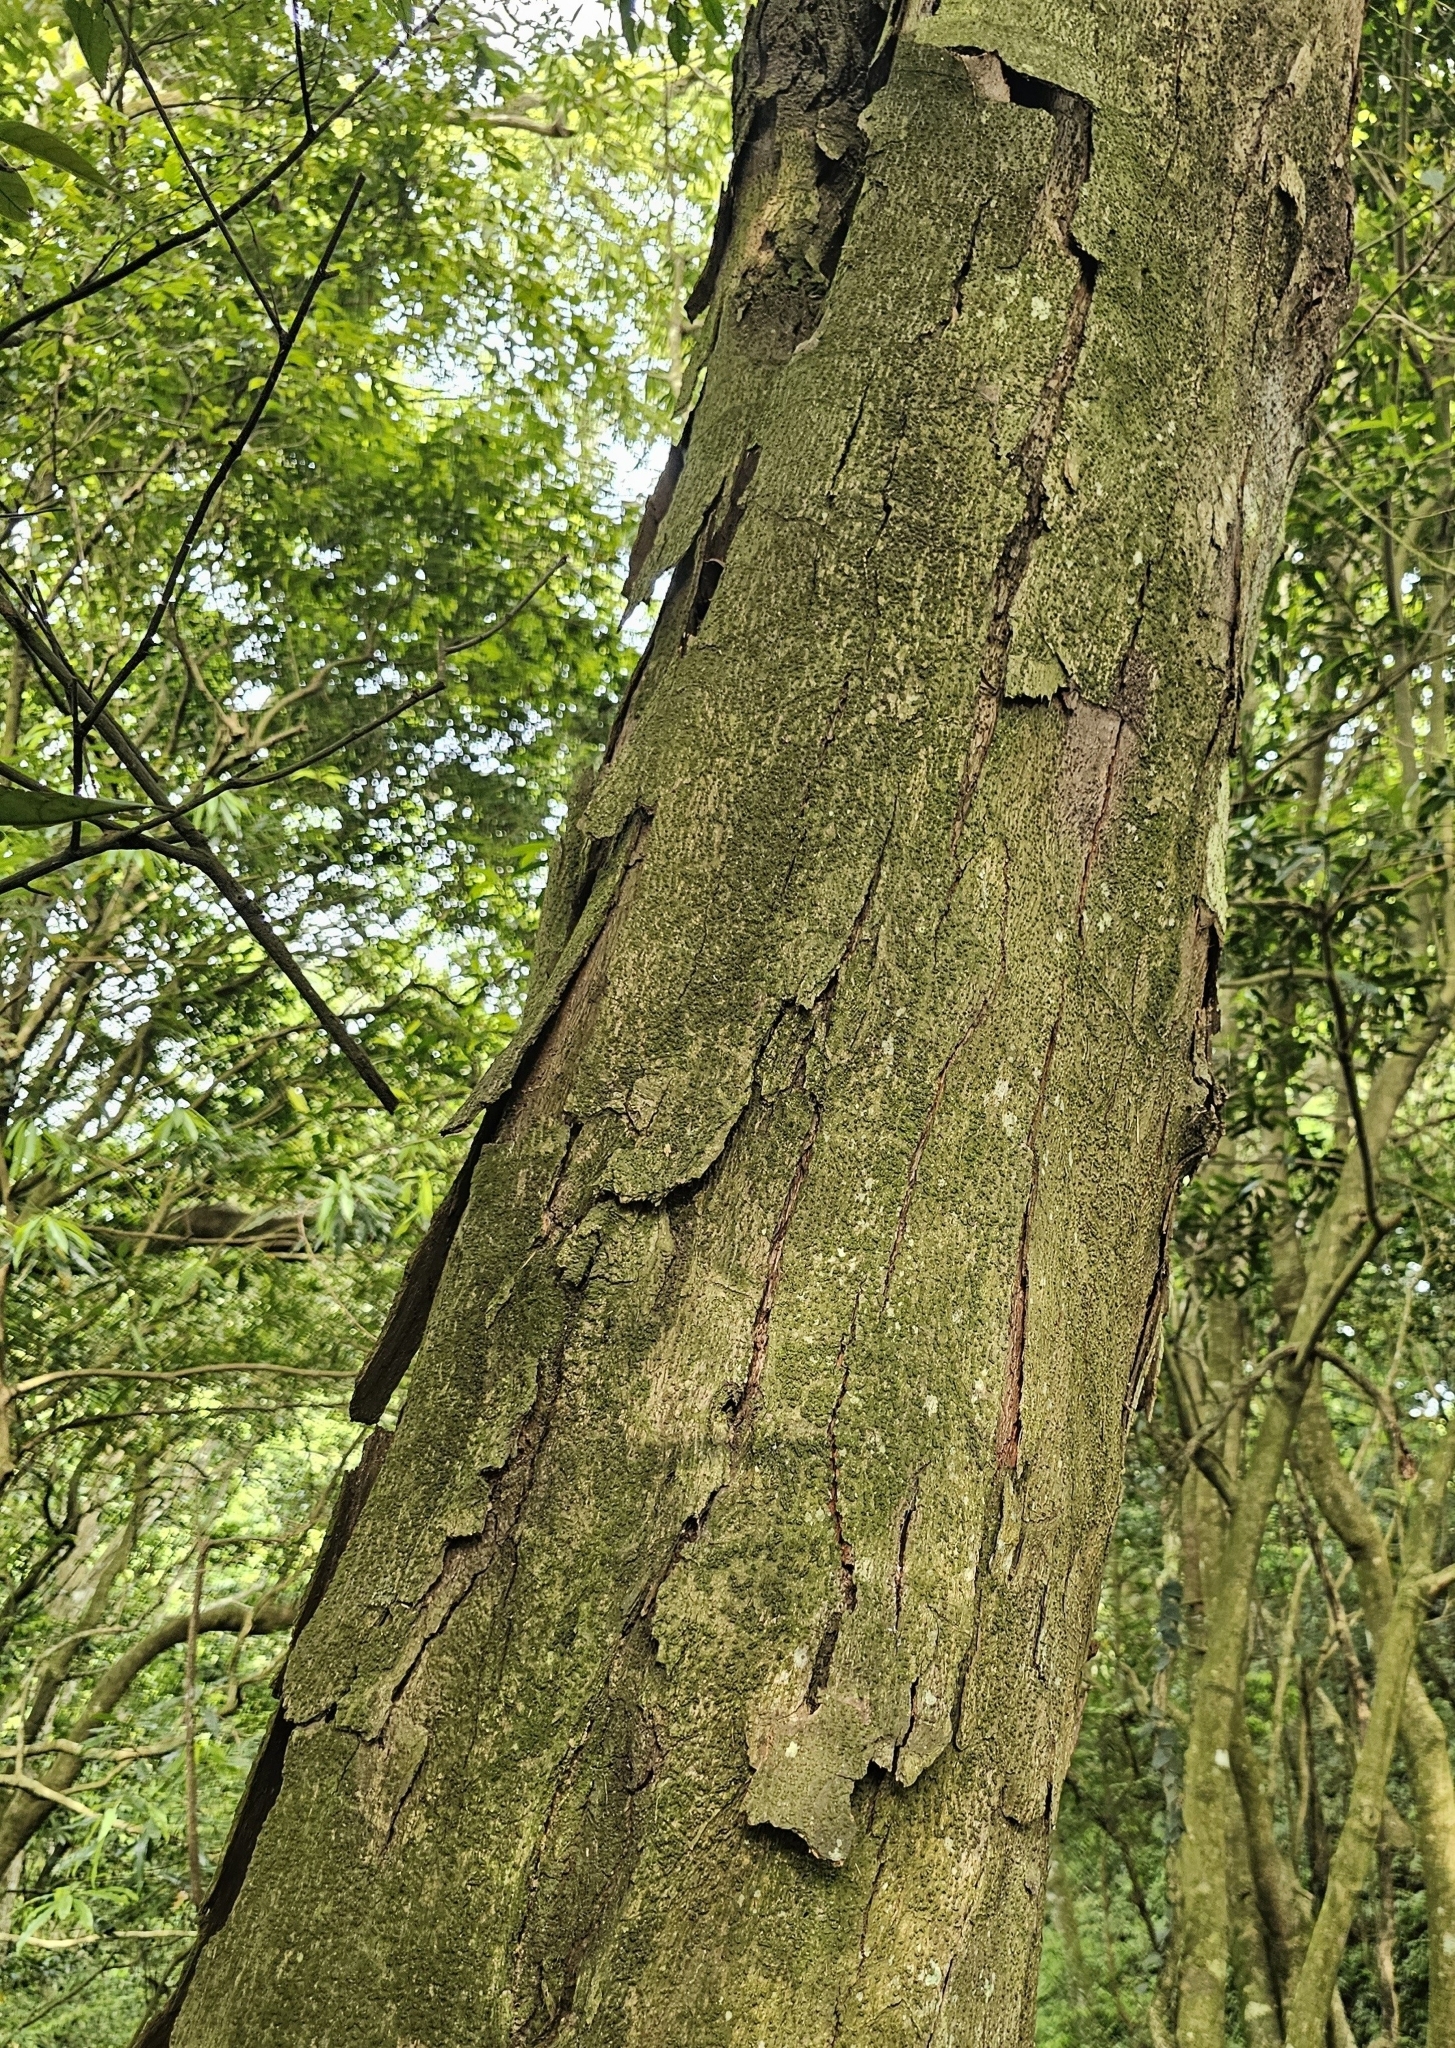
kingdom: Plantae
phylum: Tracheophyta
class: Magnoliopsida
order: Fagales
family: Fagaceae
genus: Castanopsis
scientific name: Castanopsis kawakamii
